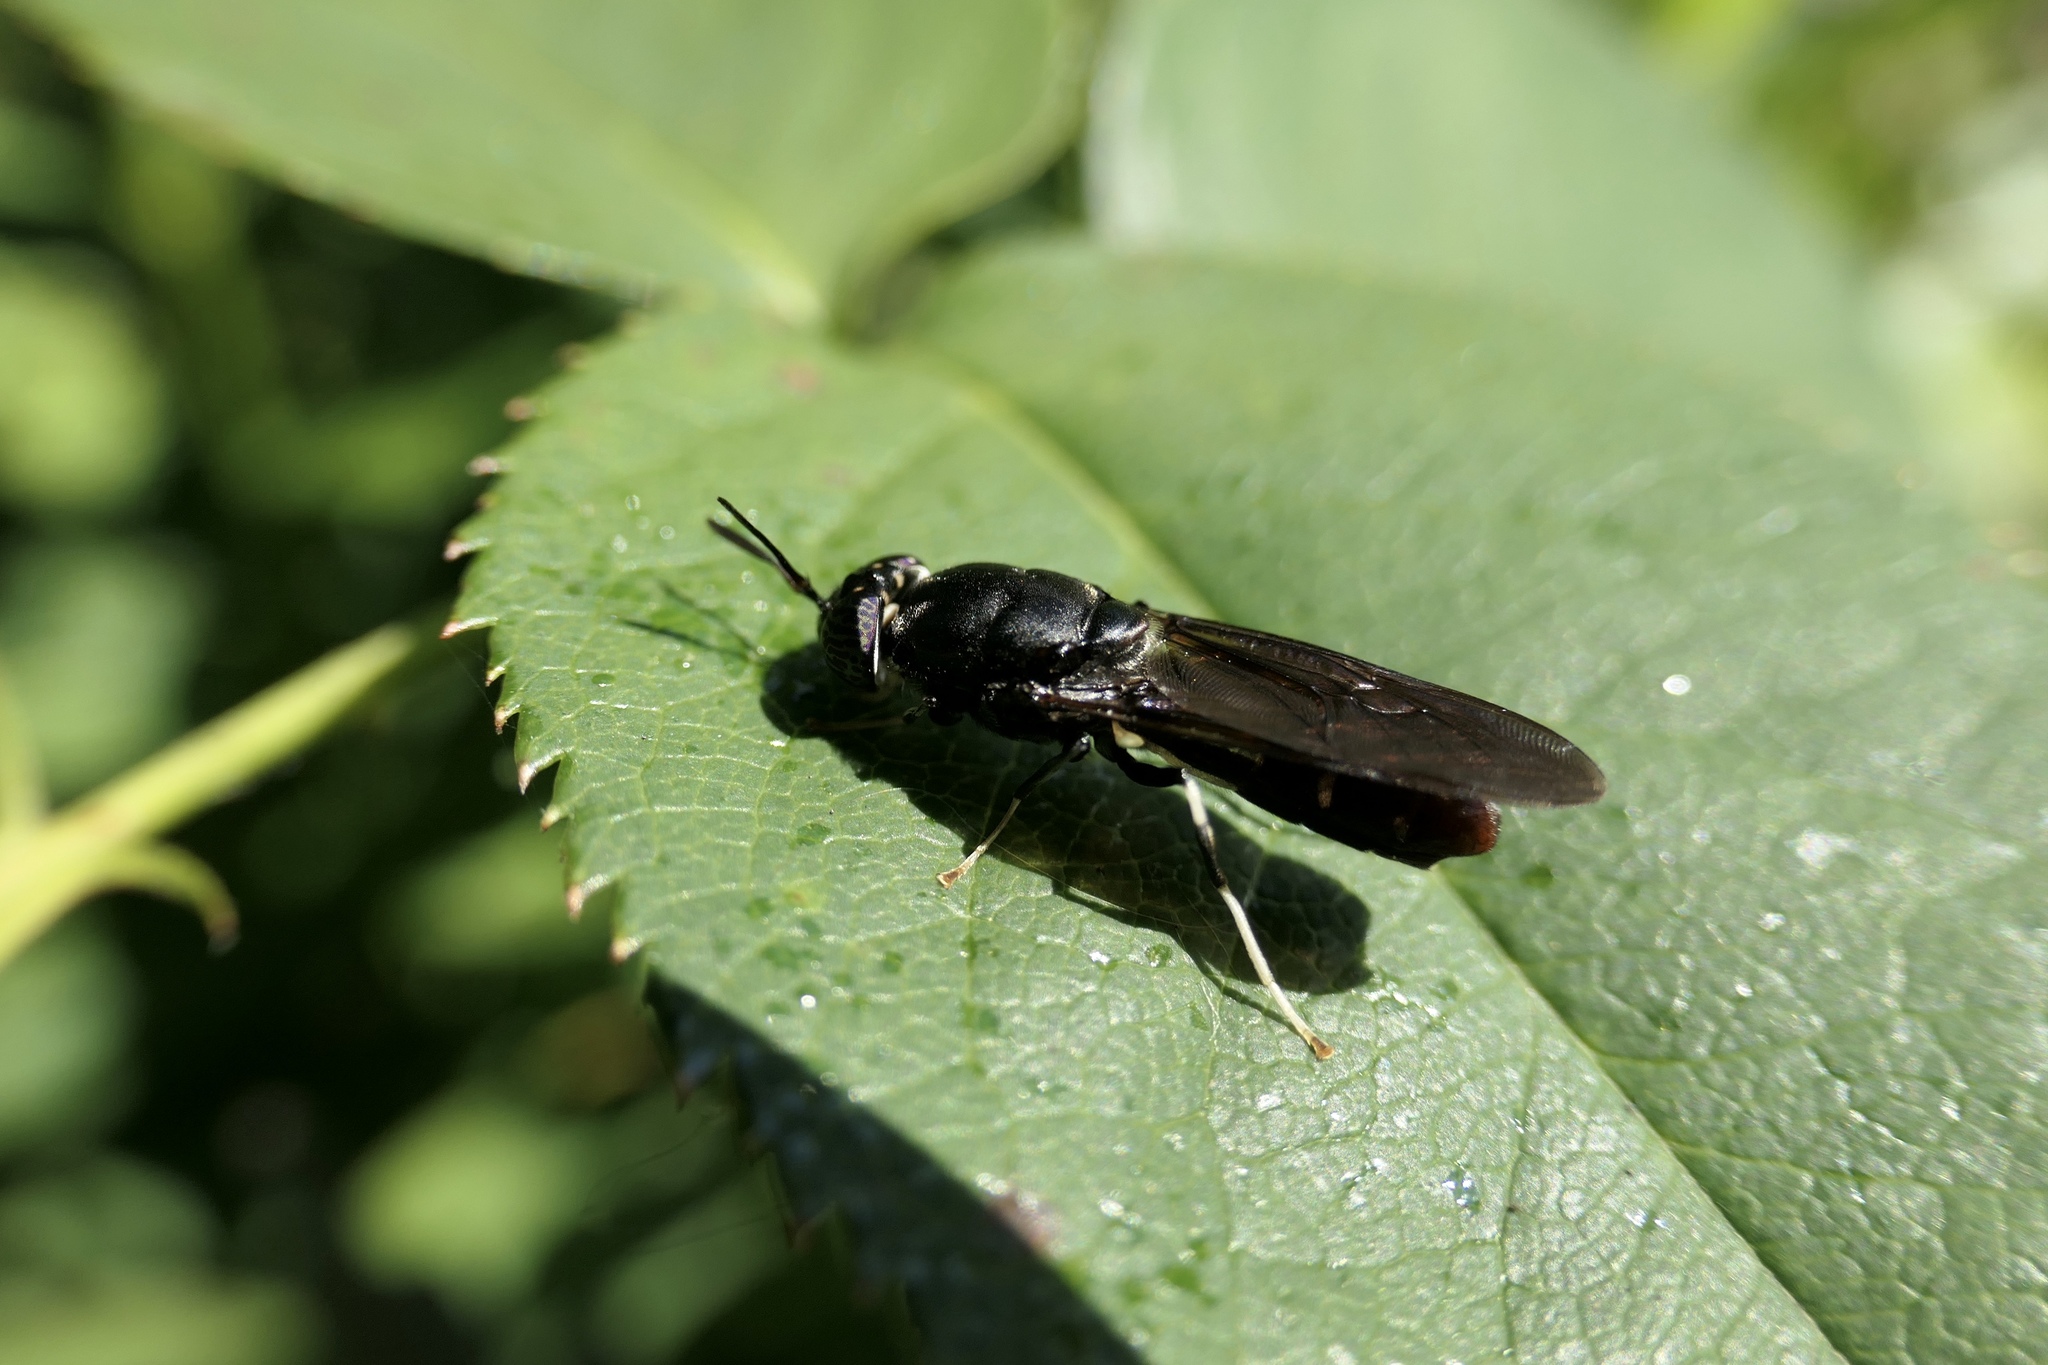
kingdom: Animalia
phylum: Arthropoda
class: Insecta
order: Diptera
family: Stratiomyidae
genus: Hermetia
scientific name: Hermetia illucens
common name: Black soldier fly
